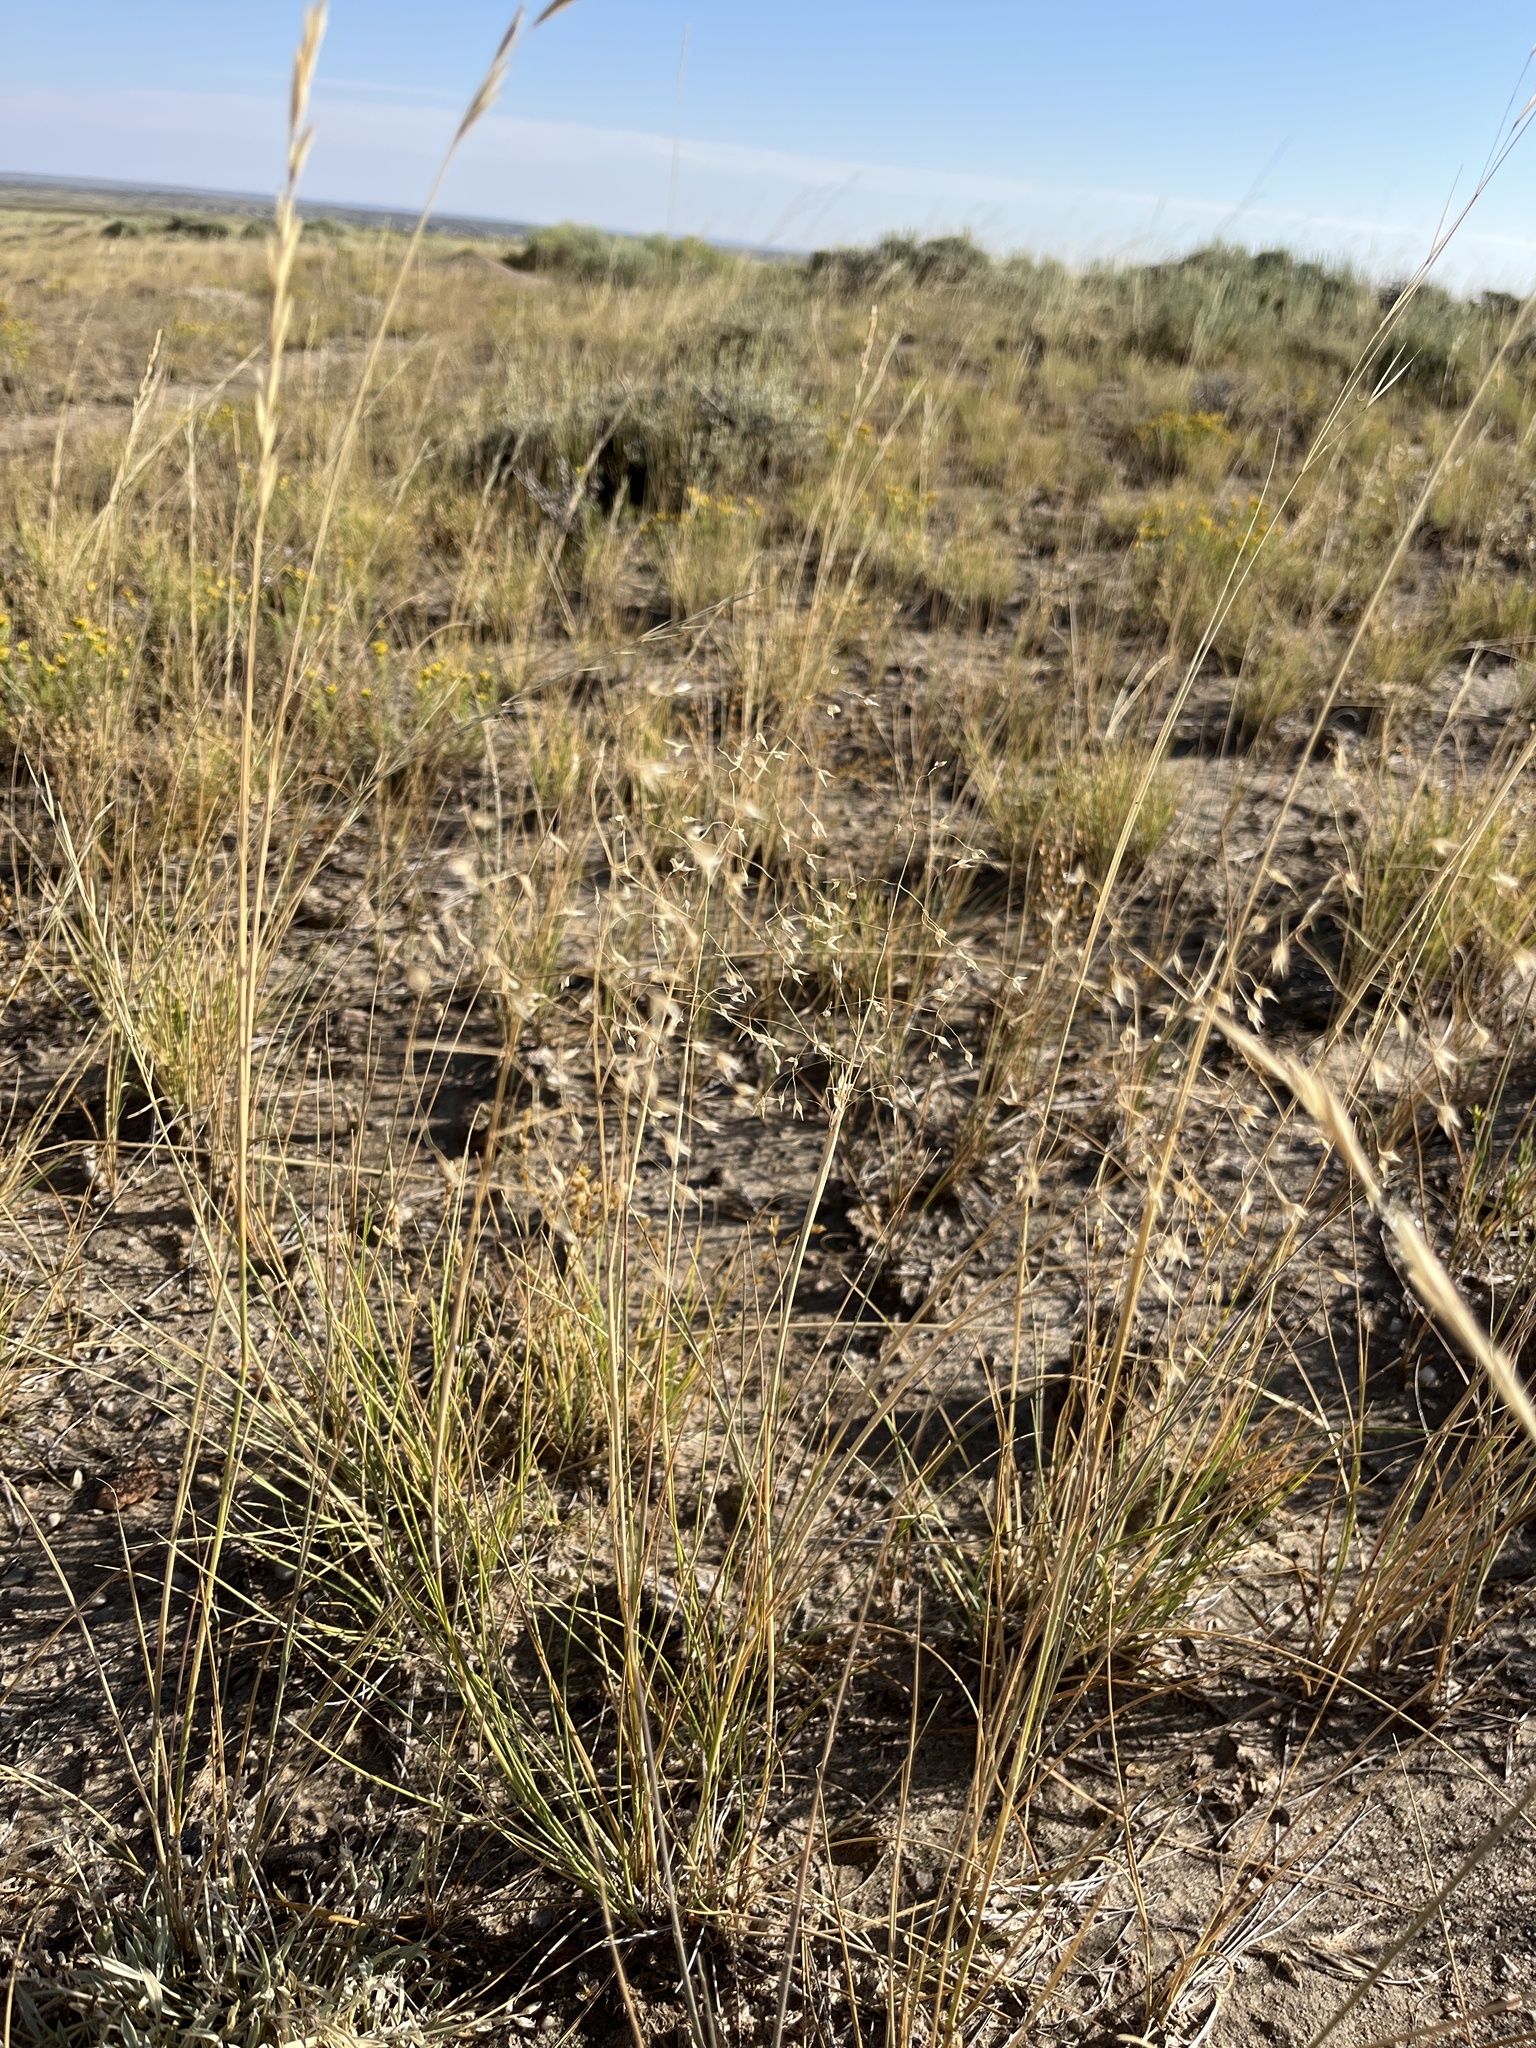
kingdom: Plantae
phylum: Tracheophyta
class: Liliopsida
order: Poales
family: Poaceae
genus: Eriocoma
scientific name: Eriocoma hymenoides
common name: Indian mountain ricegrass
